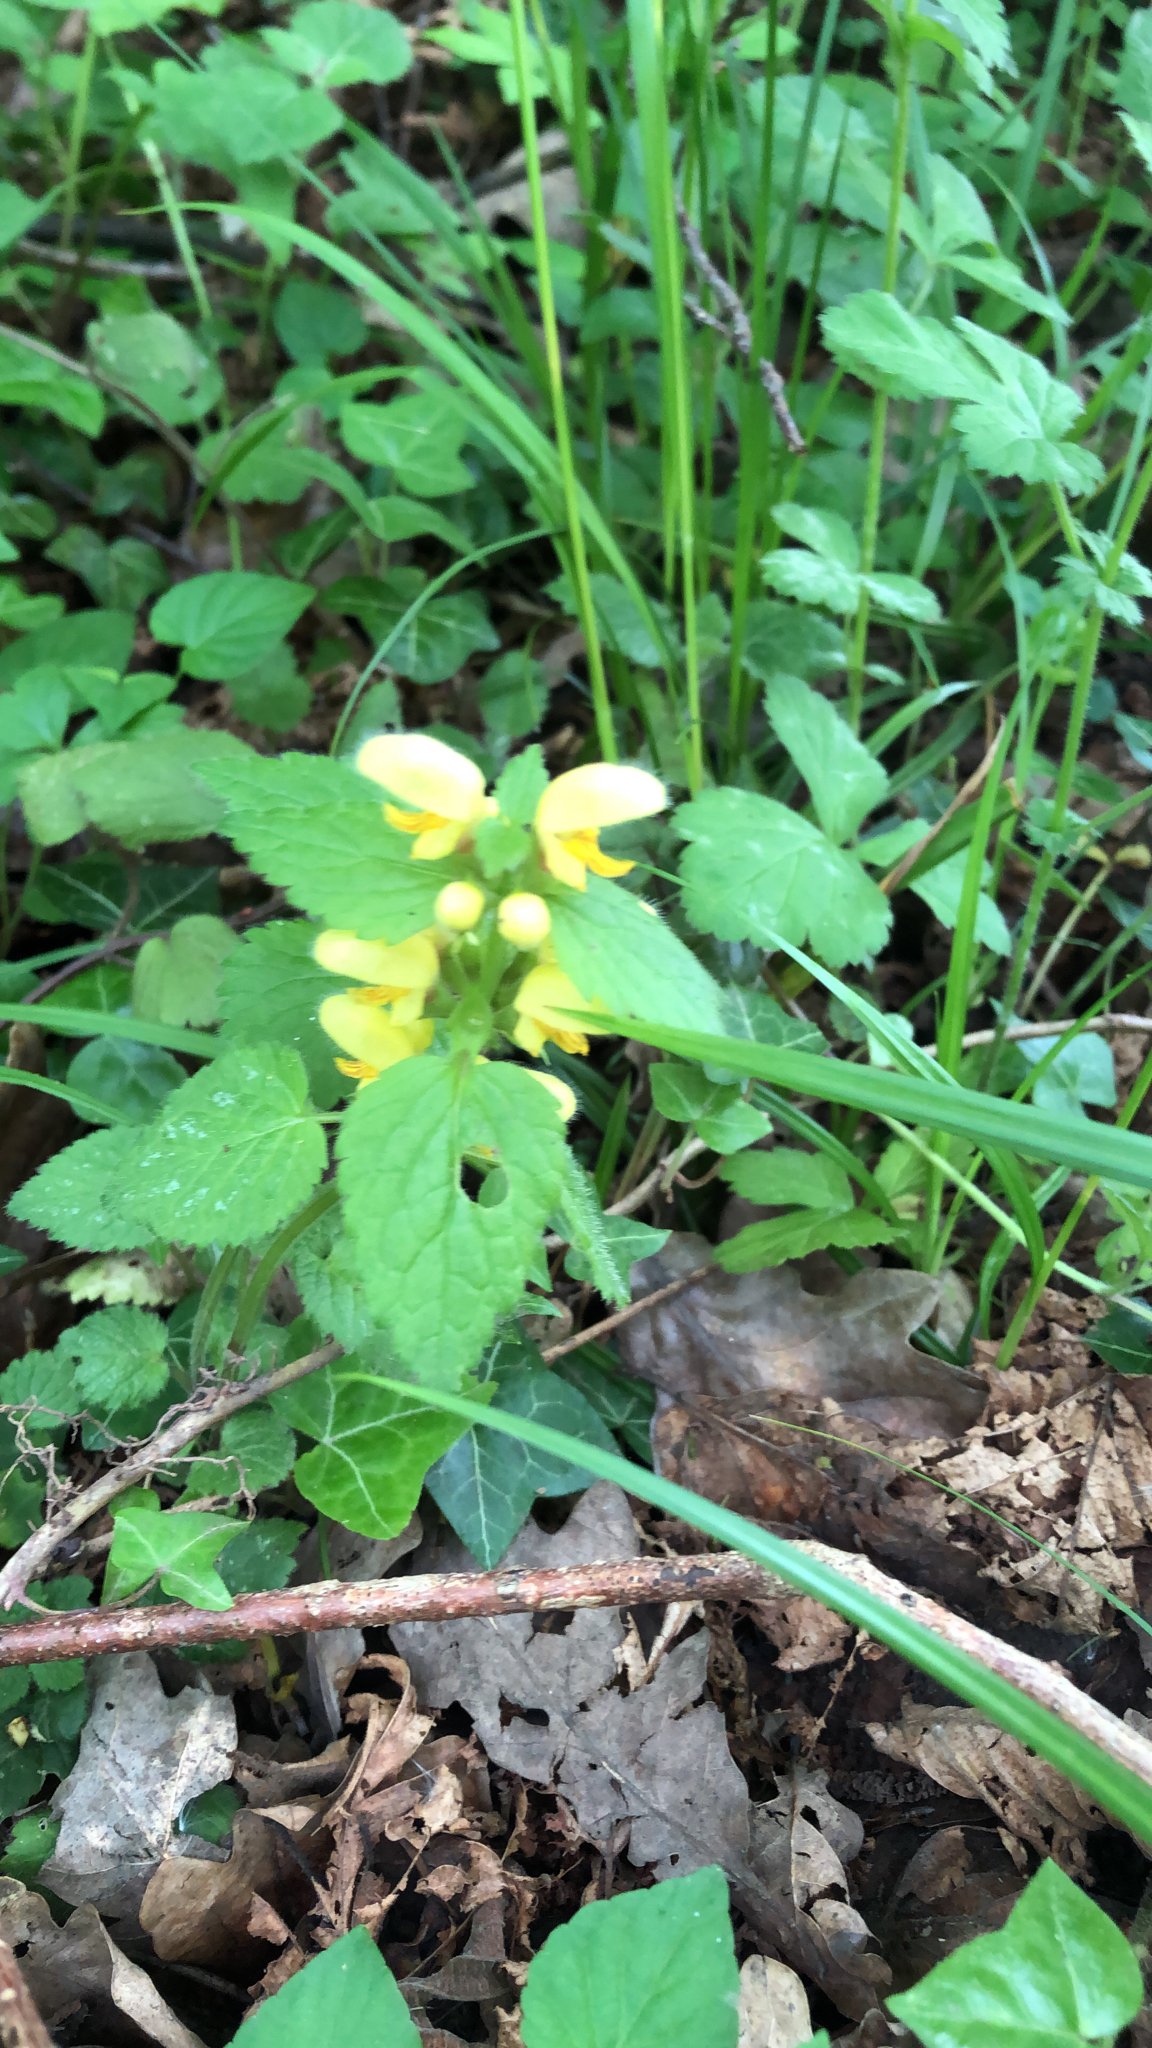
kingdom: Plantae
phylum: Tracheophyta
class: Magnoliopsida
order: Lamiales
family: Lamiaceae
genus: Lamium
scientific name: Lamium galeobdolon
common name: Yellow archangel
